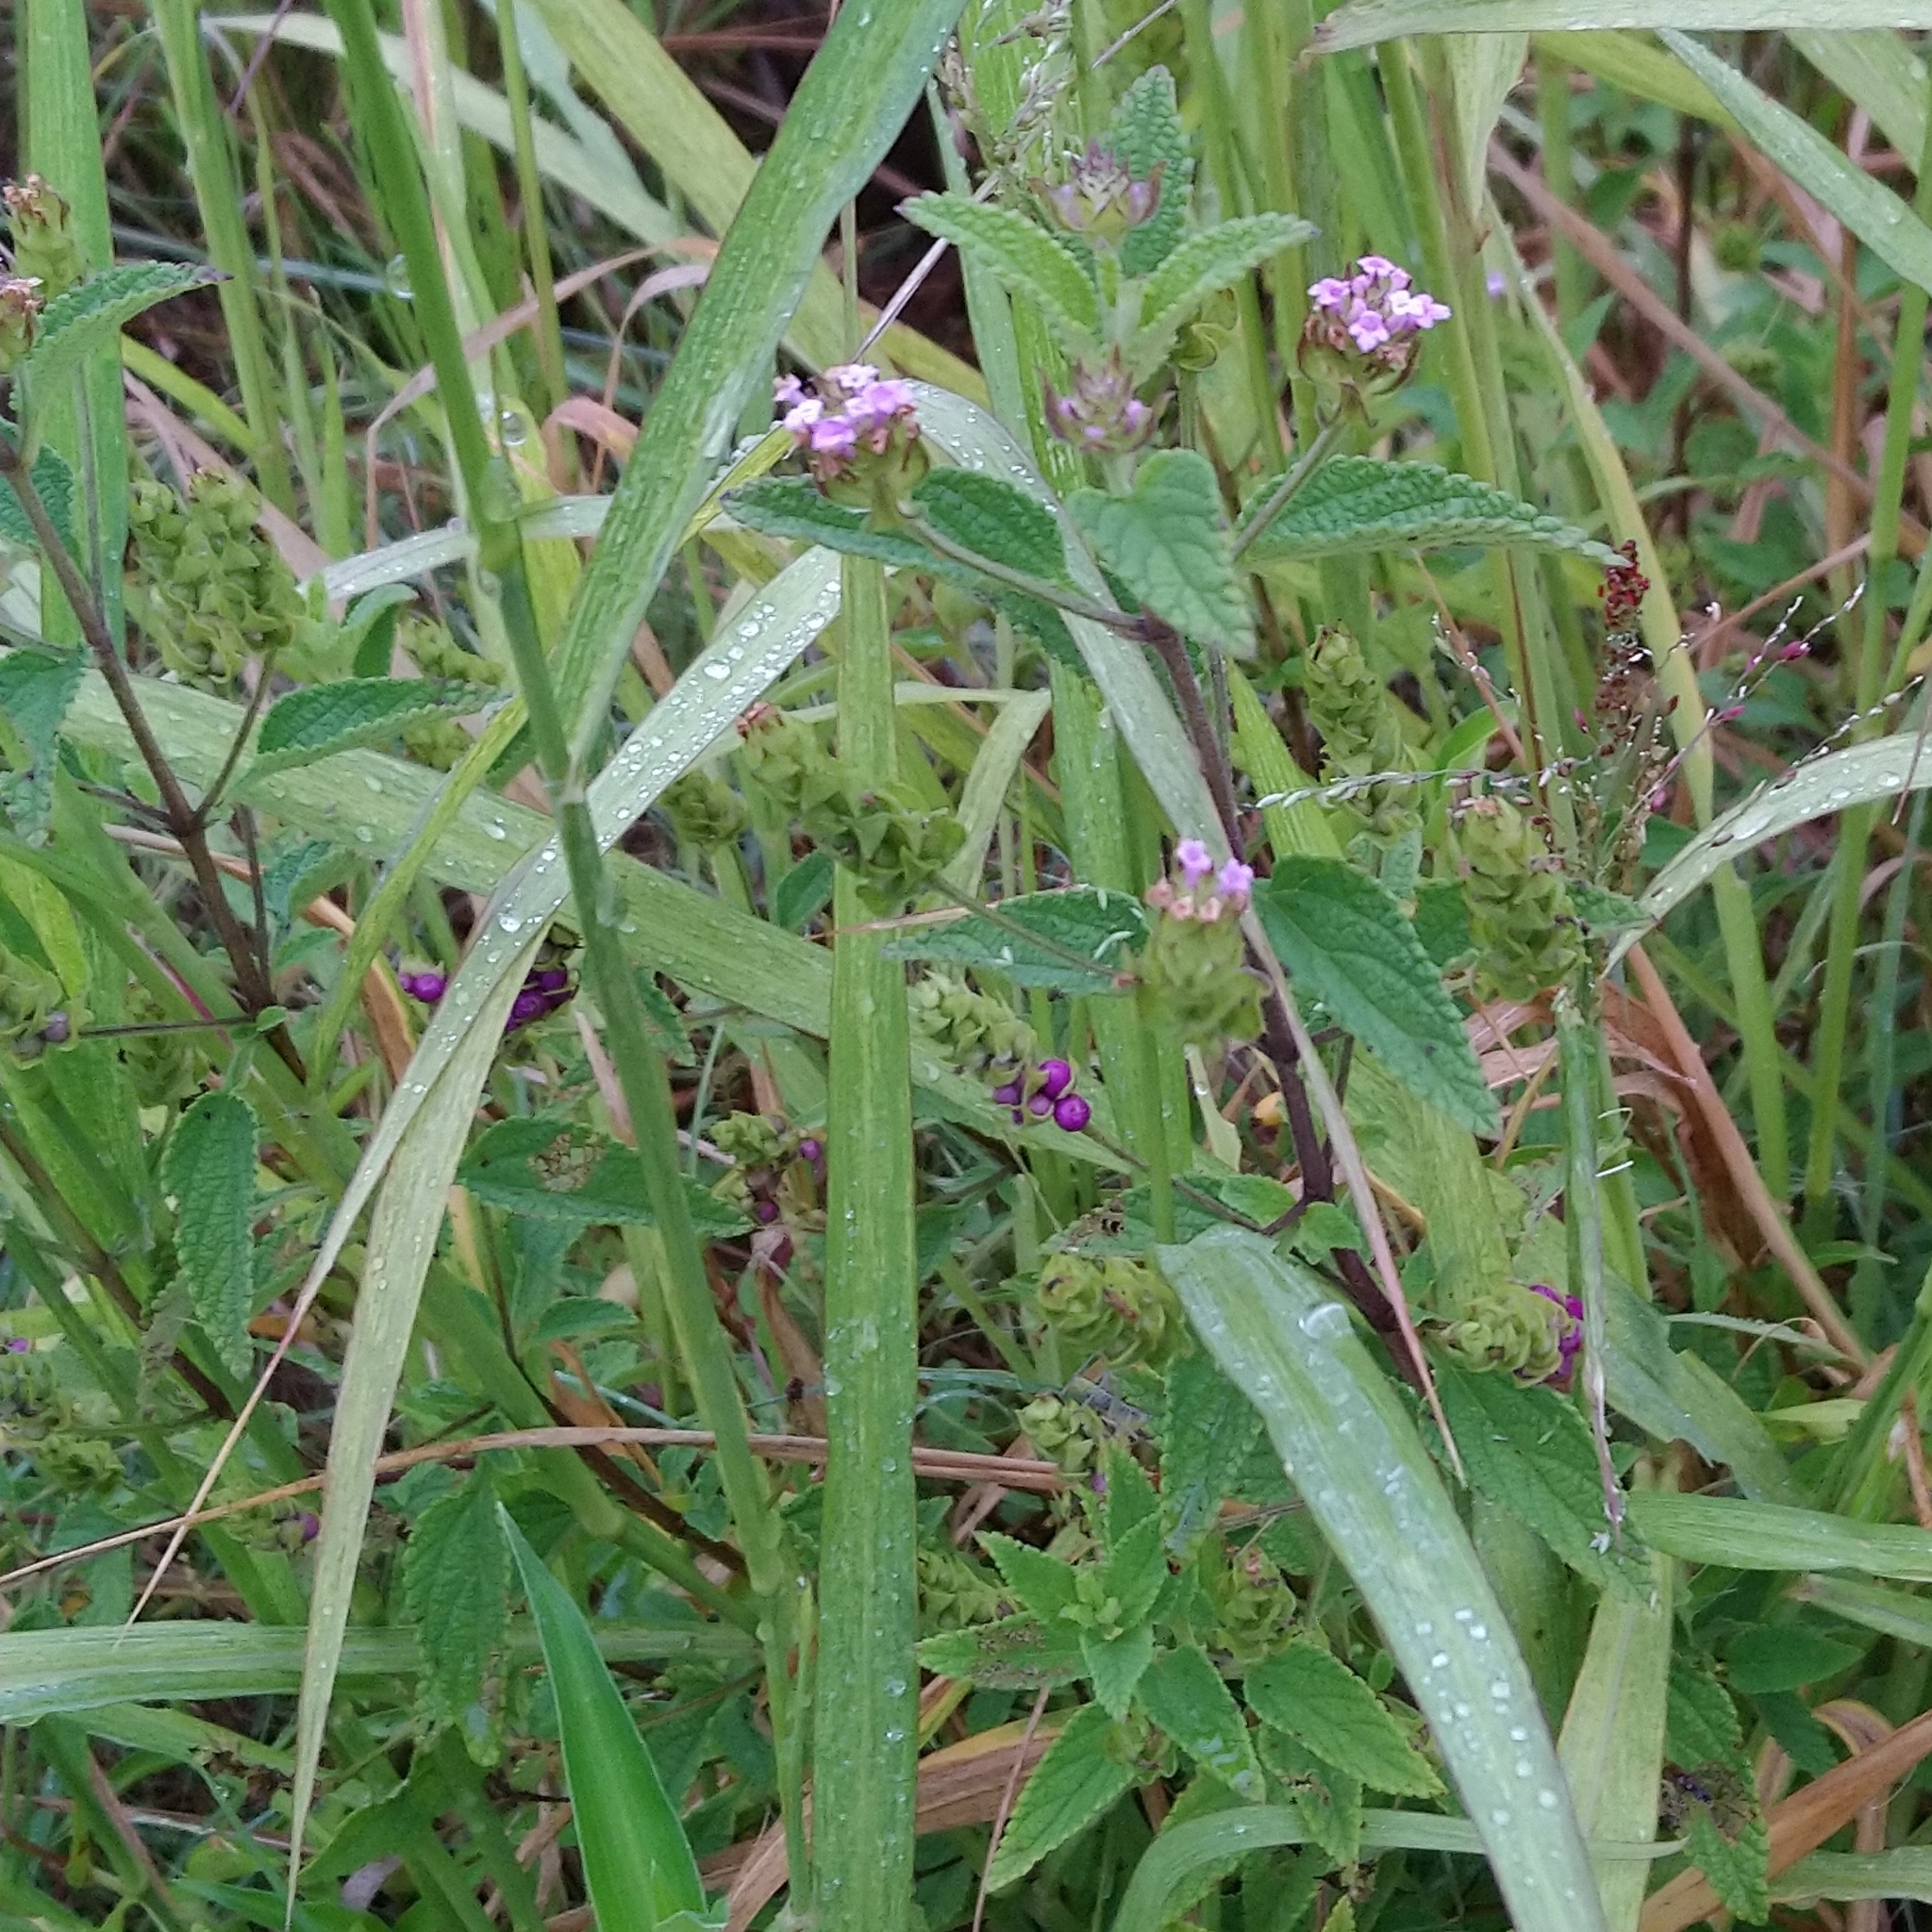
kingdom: Plantae
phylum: Tracheophyta
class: Magnoliopsida
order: Lamiales
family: Verbenaceae
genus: Lantana
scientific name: Lantana rugosa
